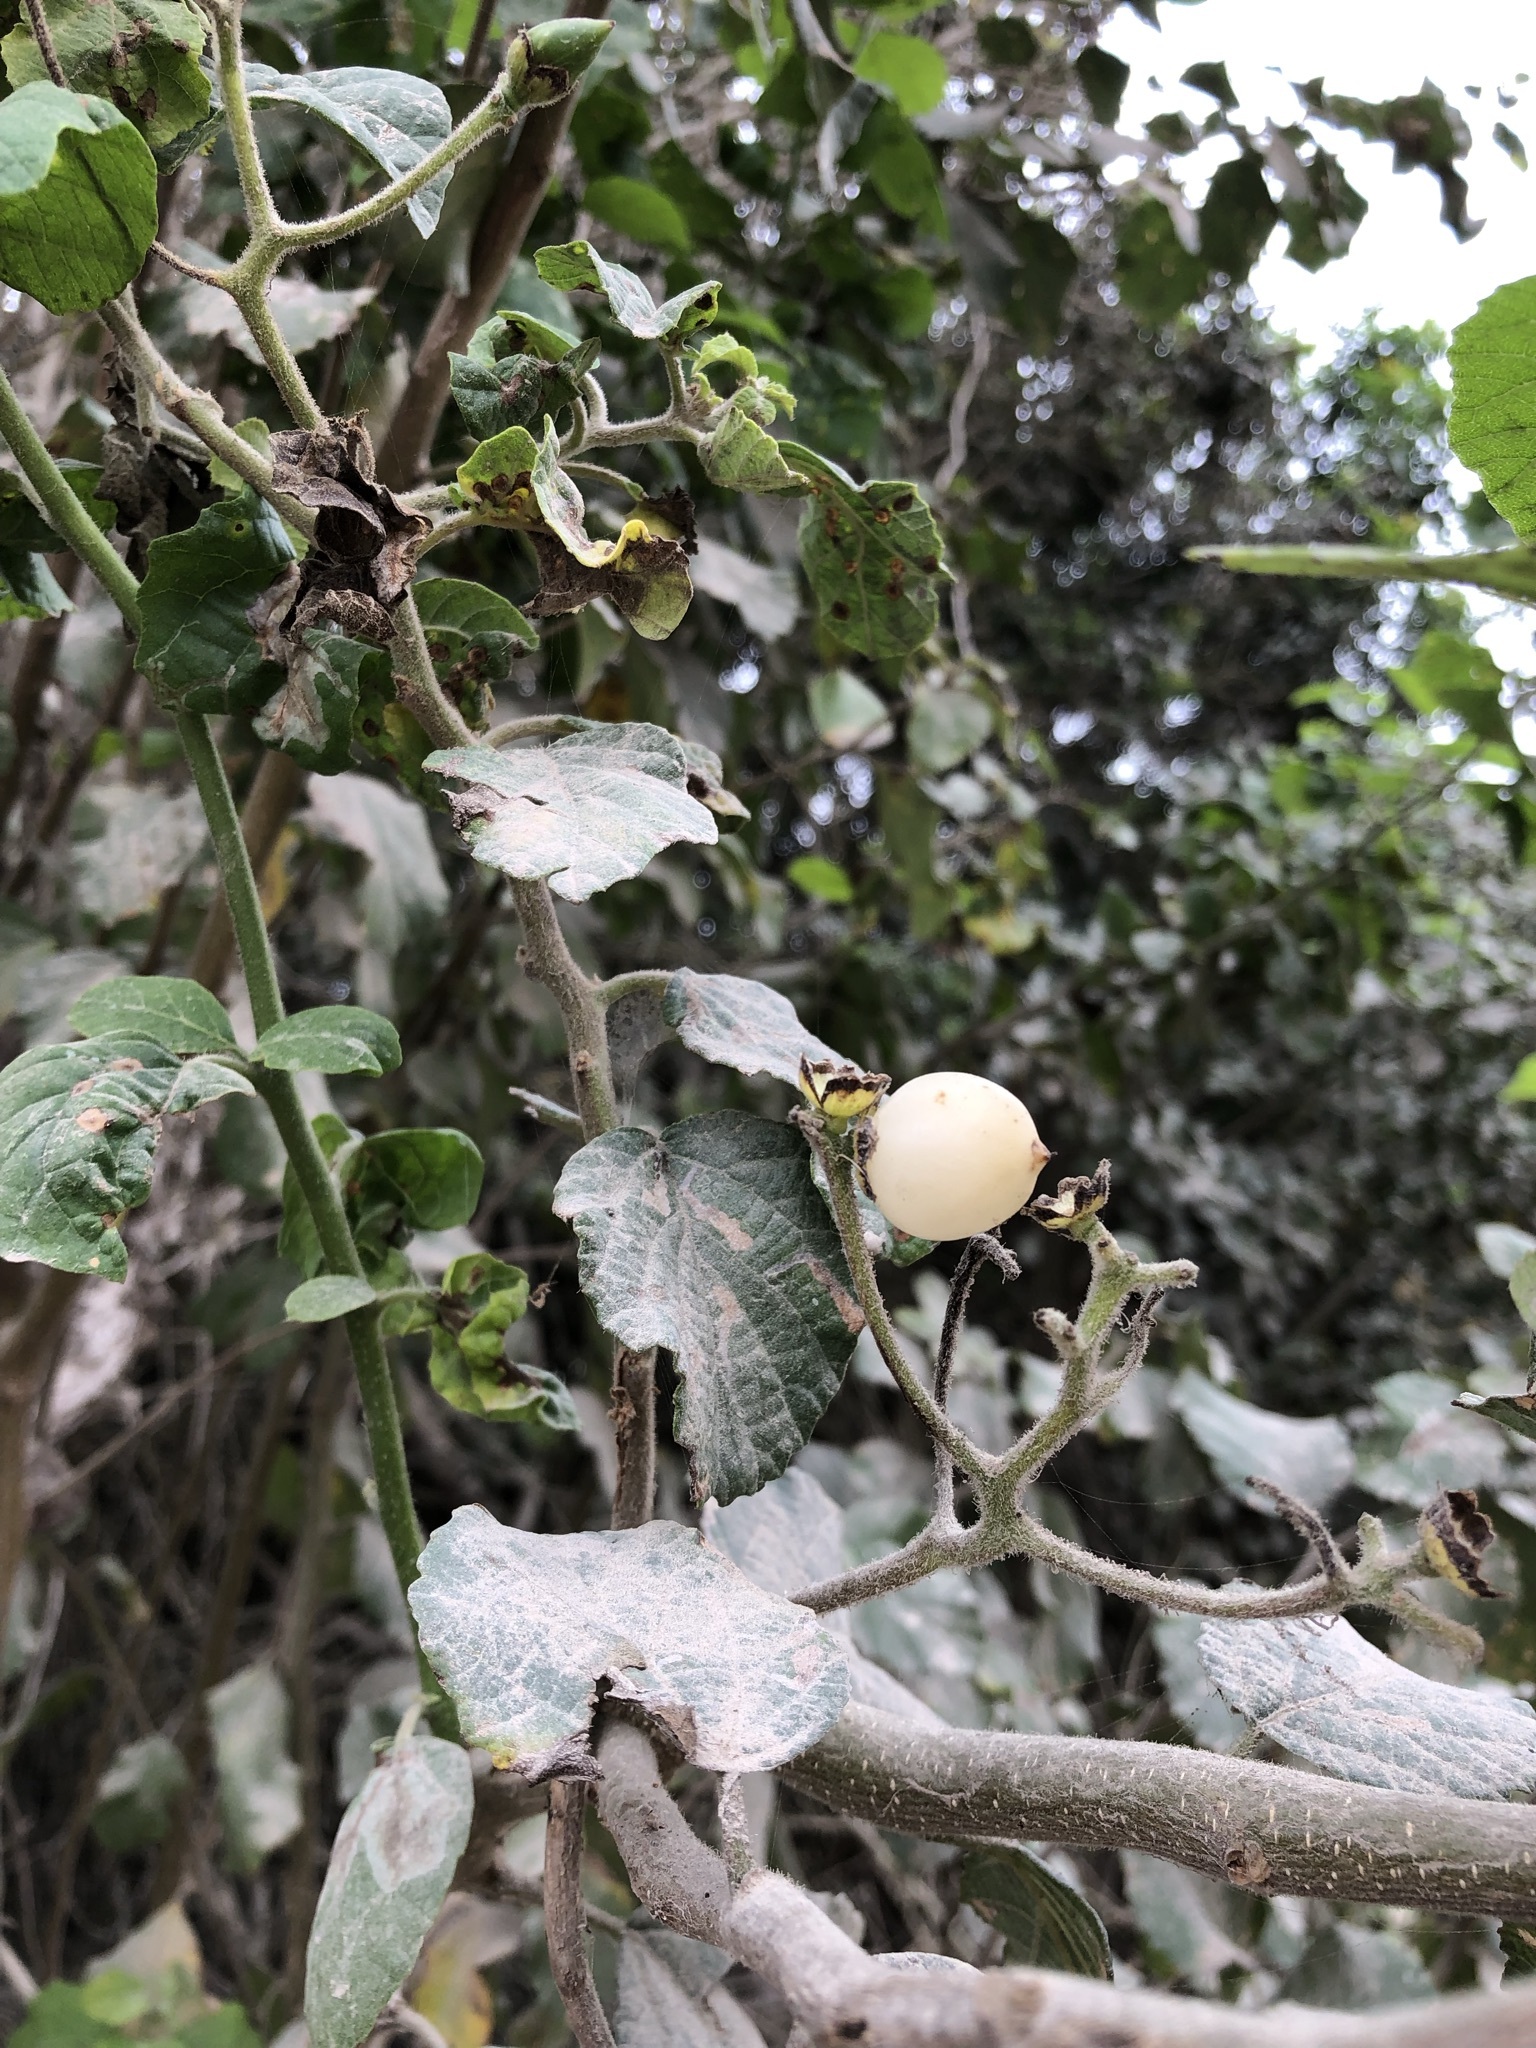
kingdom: Plantae
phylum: Tracheophyta
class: Magnoliopsida
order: Boraginales
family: Cordiaceae
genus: Cordia
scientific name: Cordia lutea
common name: Yellow geiger
